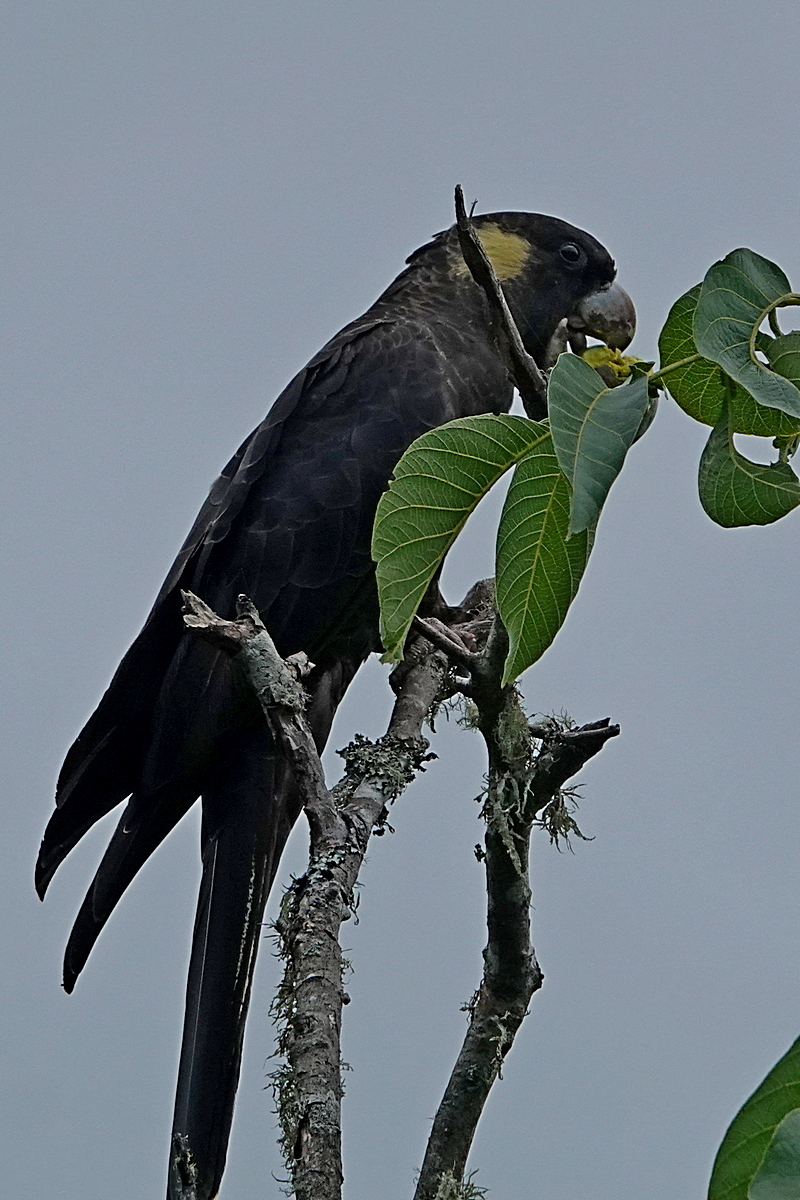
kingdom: Animalia
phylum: Chordata
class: Aves
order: Psittaciformes
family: Cacatuidae
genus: Zanda
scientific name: Zanda funerea
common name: Yellow-tailed black-cockatoo
